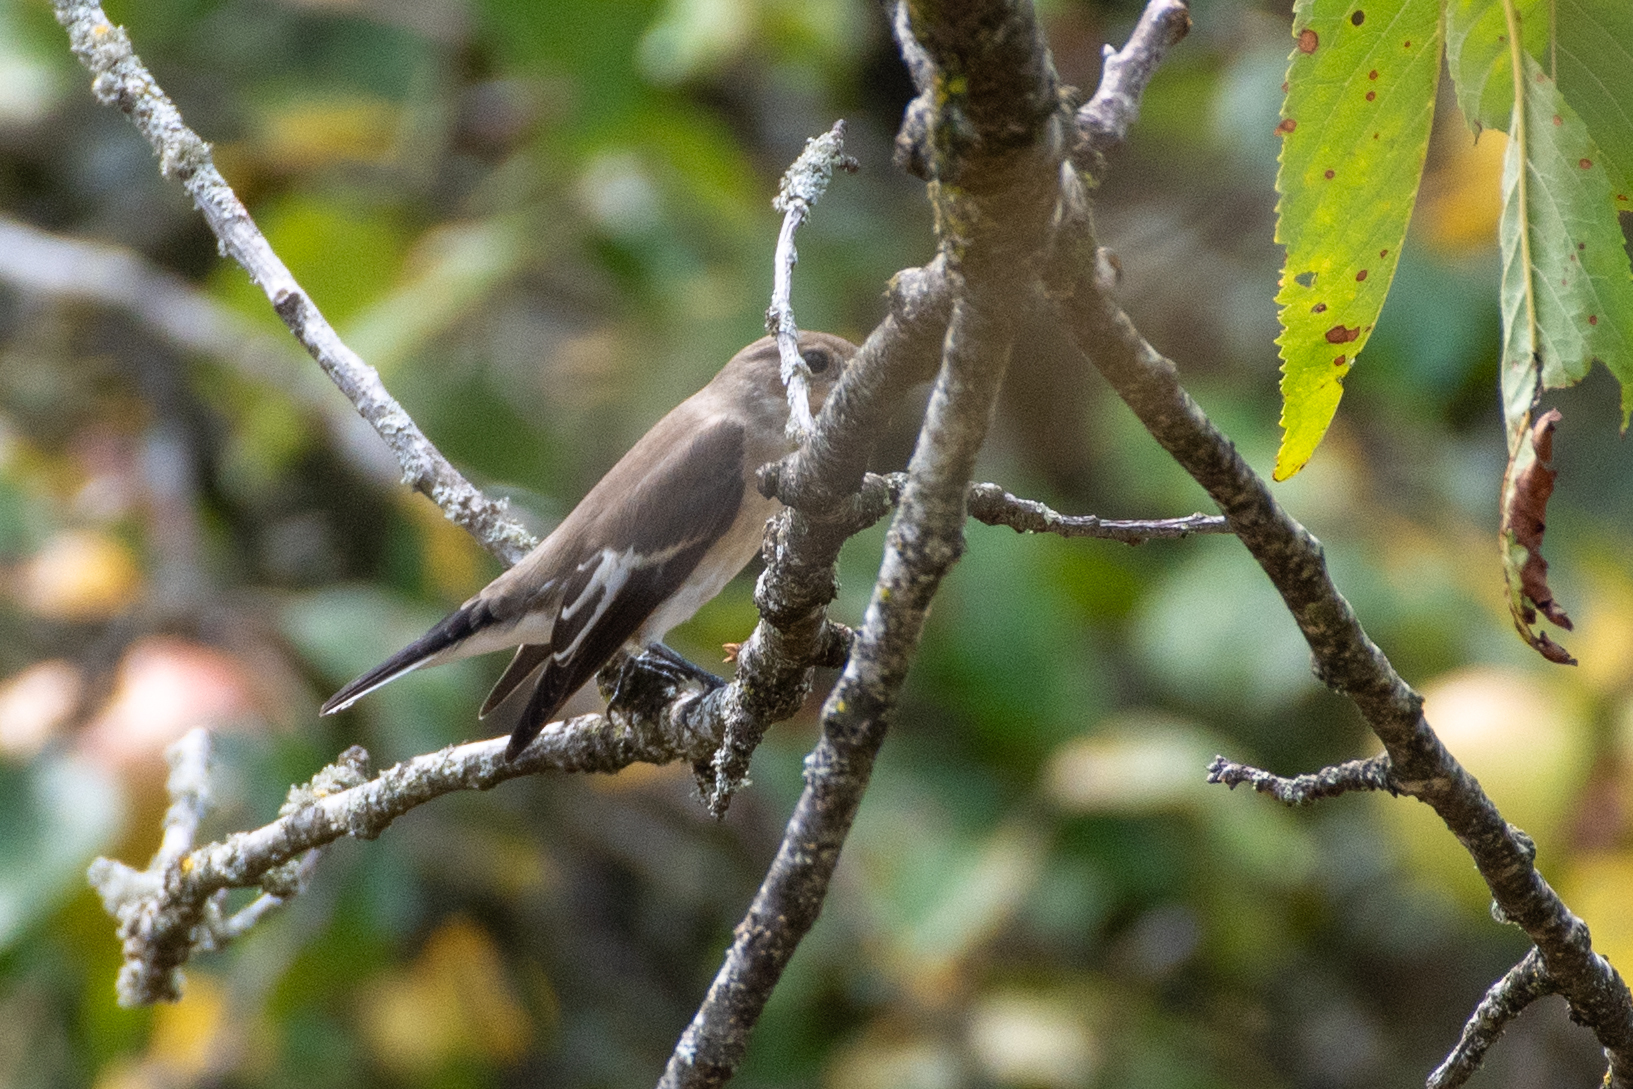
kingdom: Animalia
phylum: Chordata
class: Aves
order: Passeriformes
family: Muscicapidae
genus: Ficedula
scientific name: Ficedula hypoleuca
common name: European pied flycatcher
